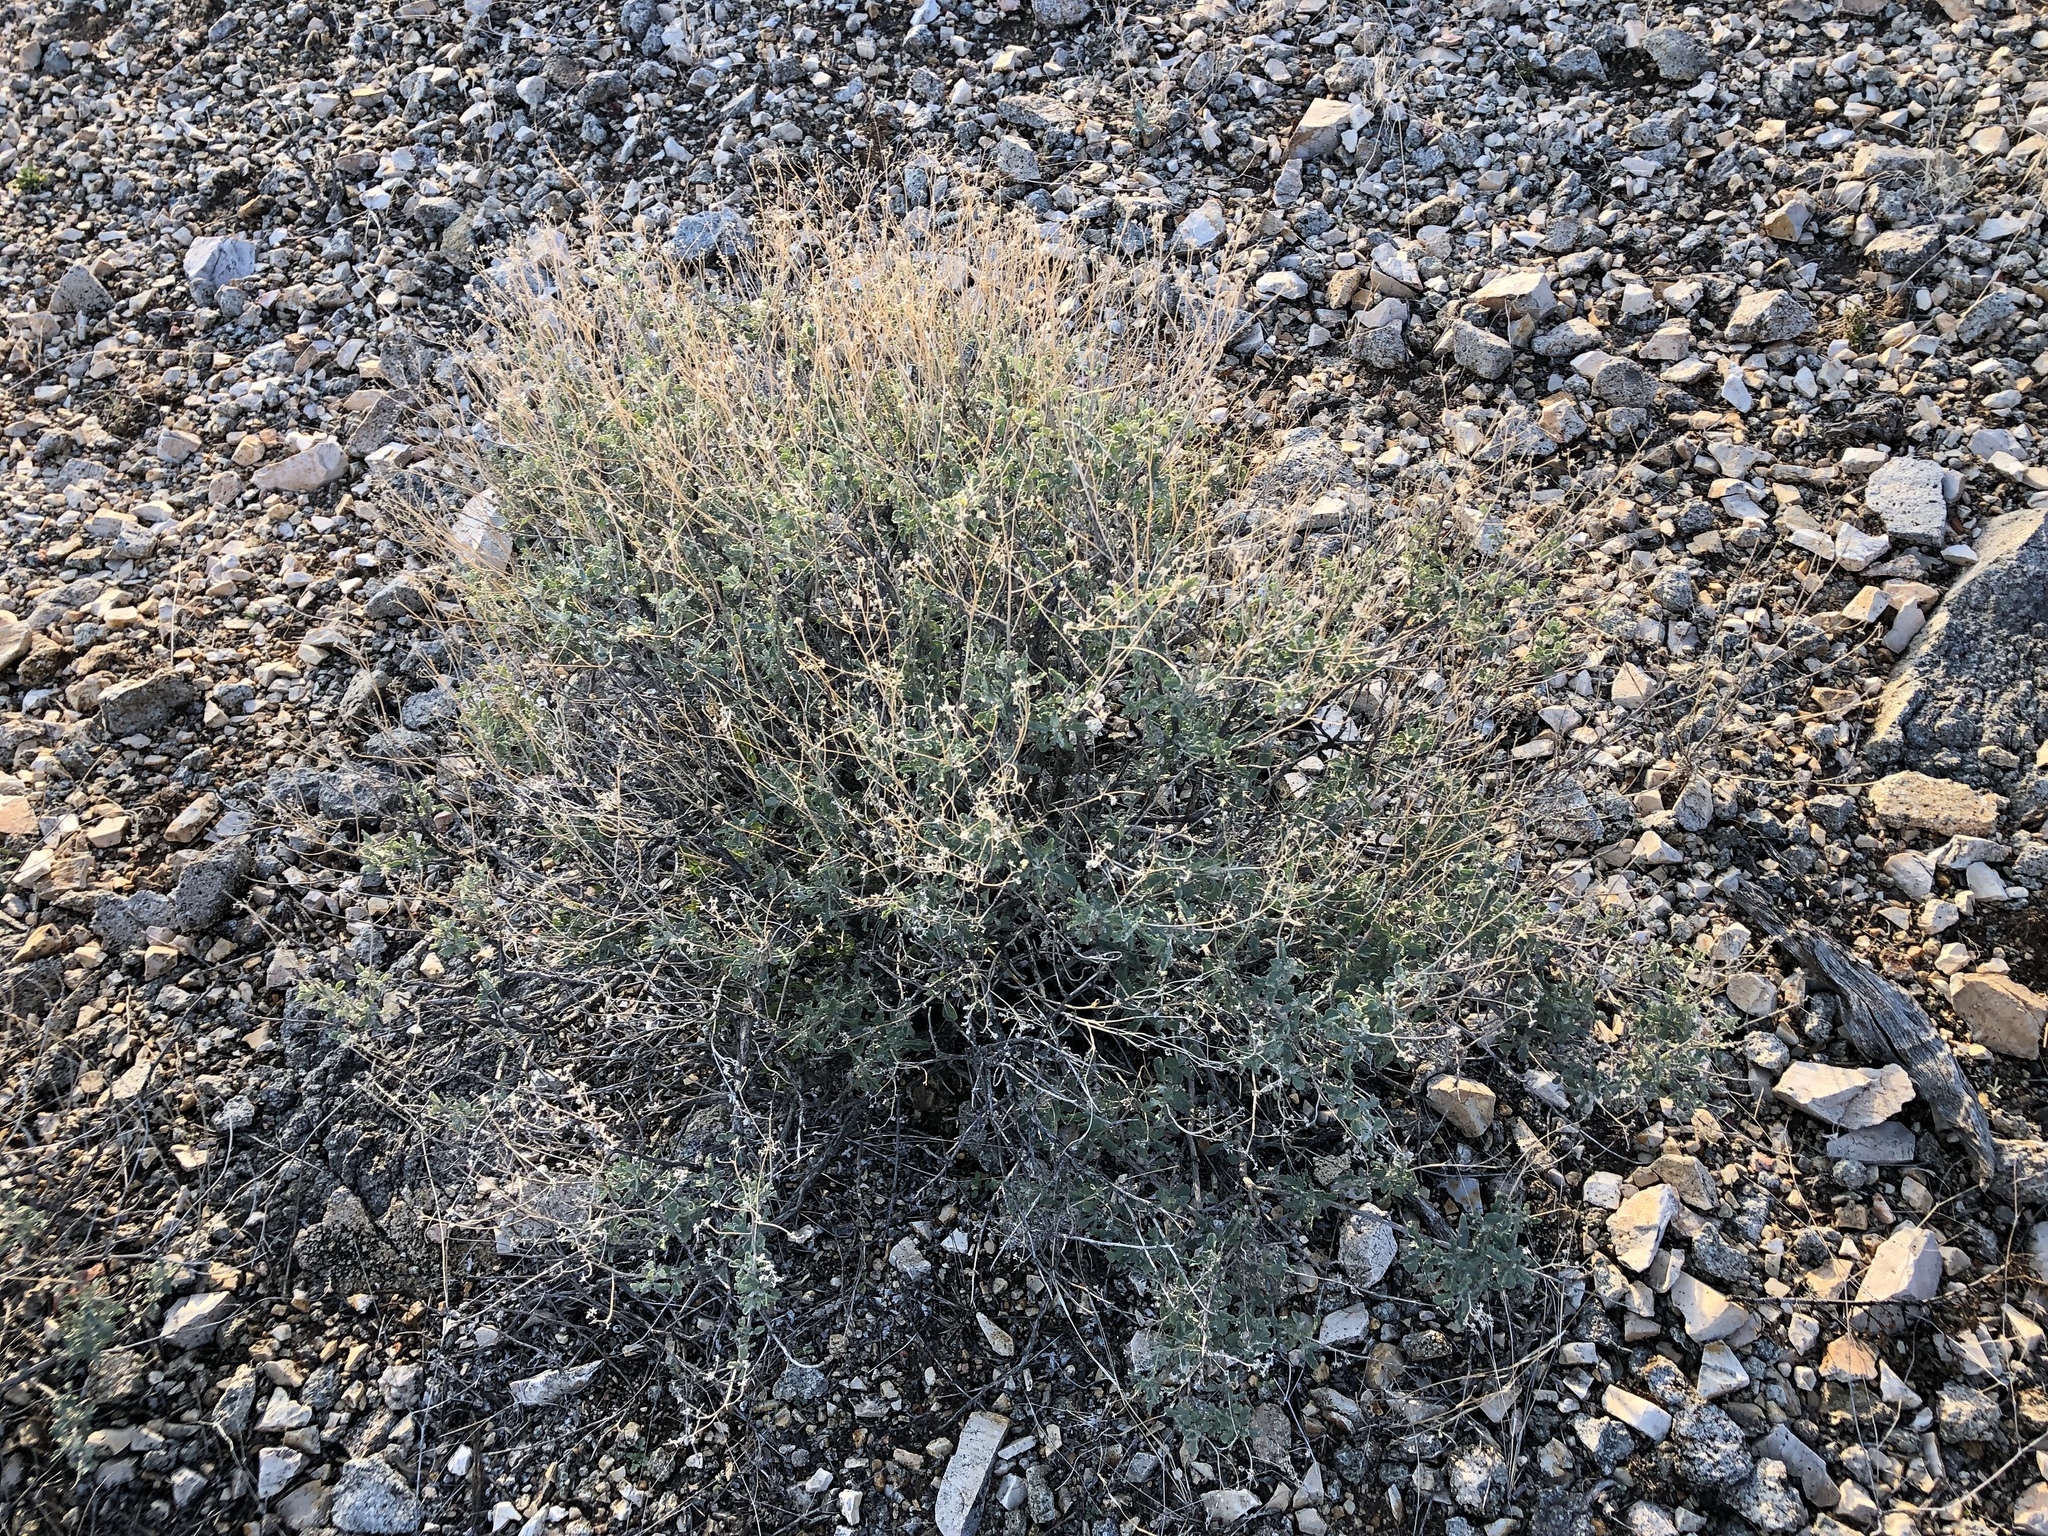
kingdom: Plantae
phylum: Tracheophyta
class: Magnoliopsida
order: Asterales
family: Asteraceae
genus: Parthenium
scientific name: Parthenium incanum
